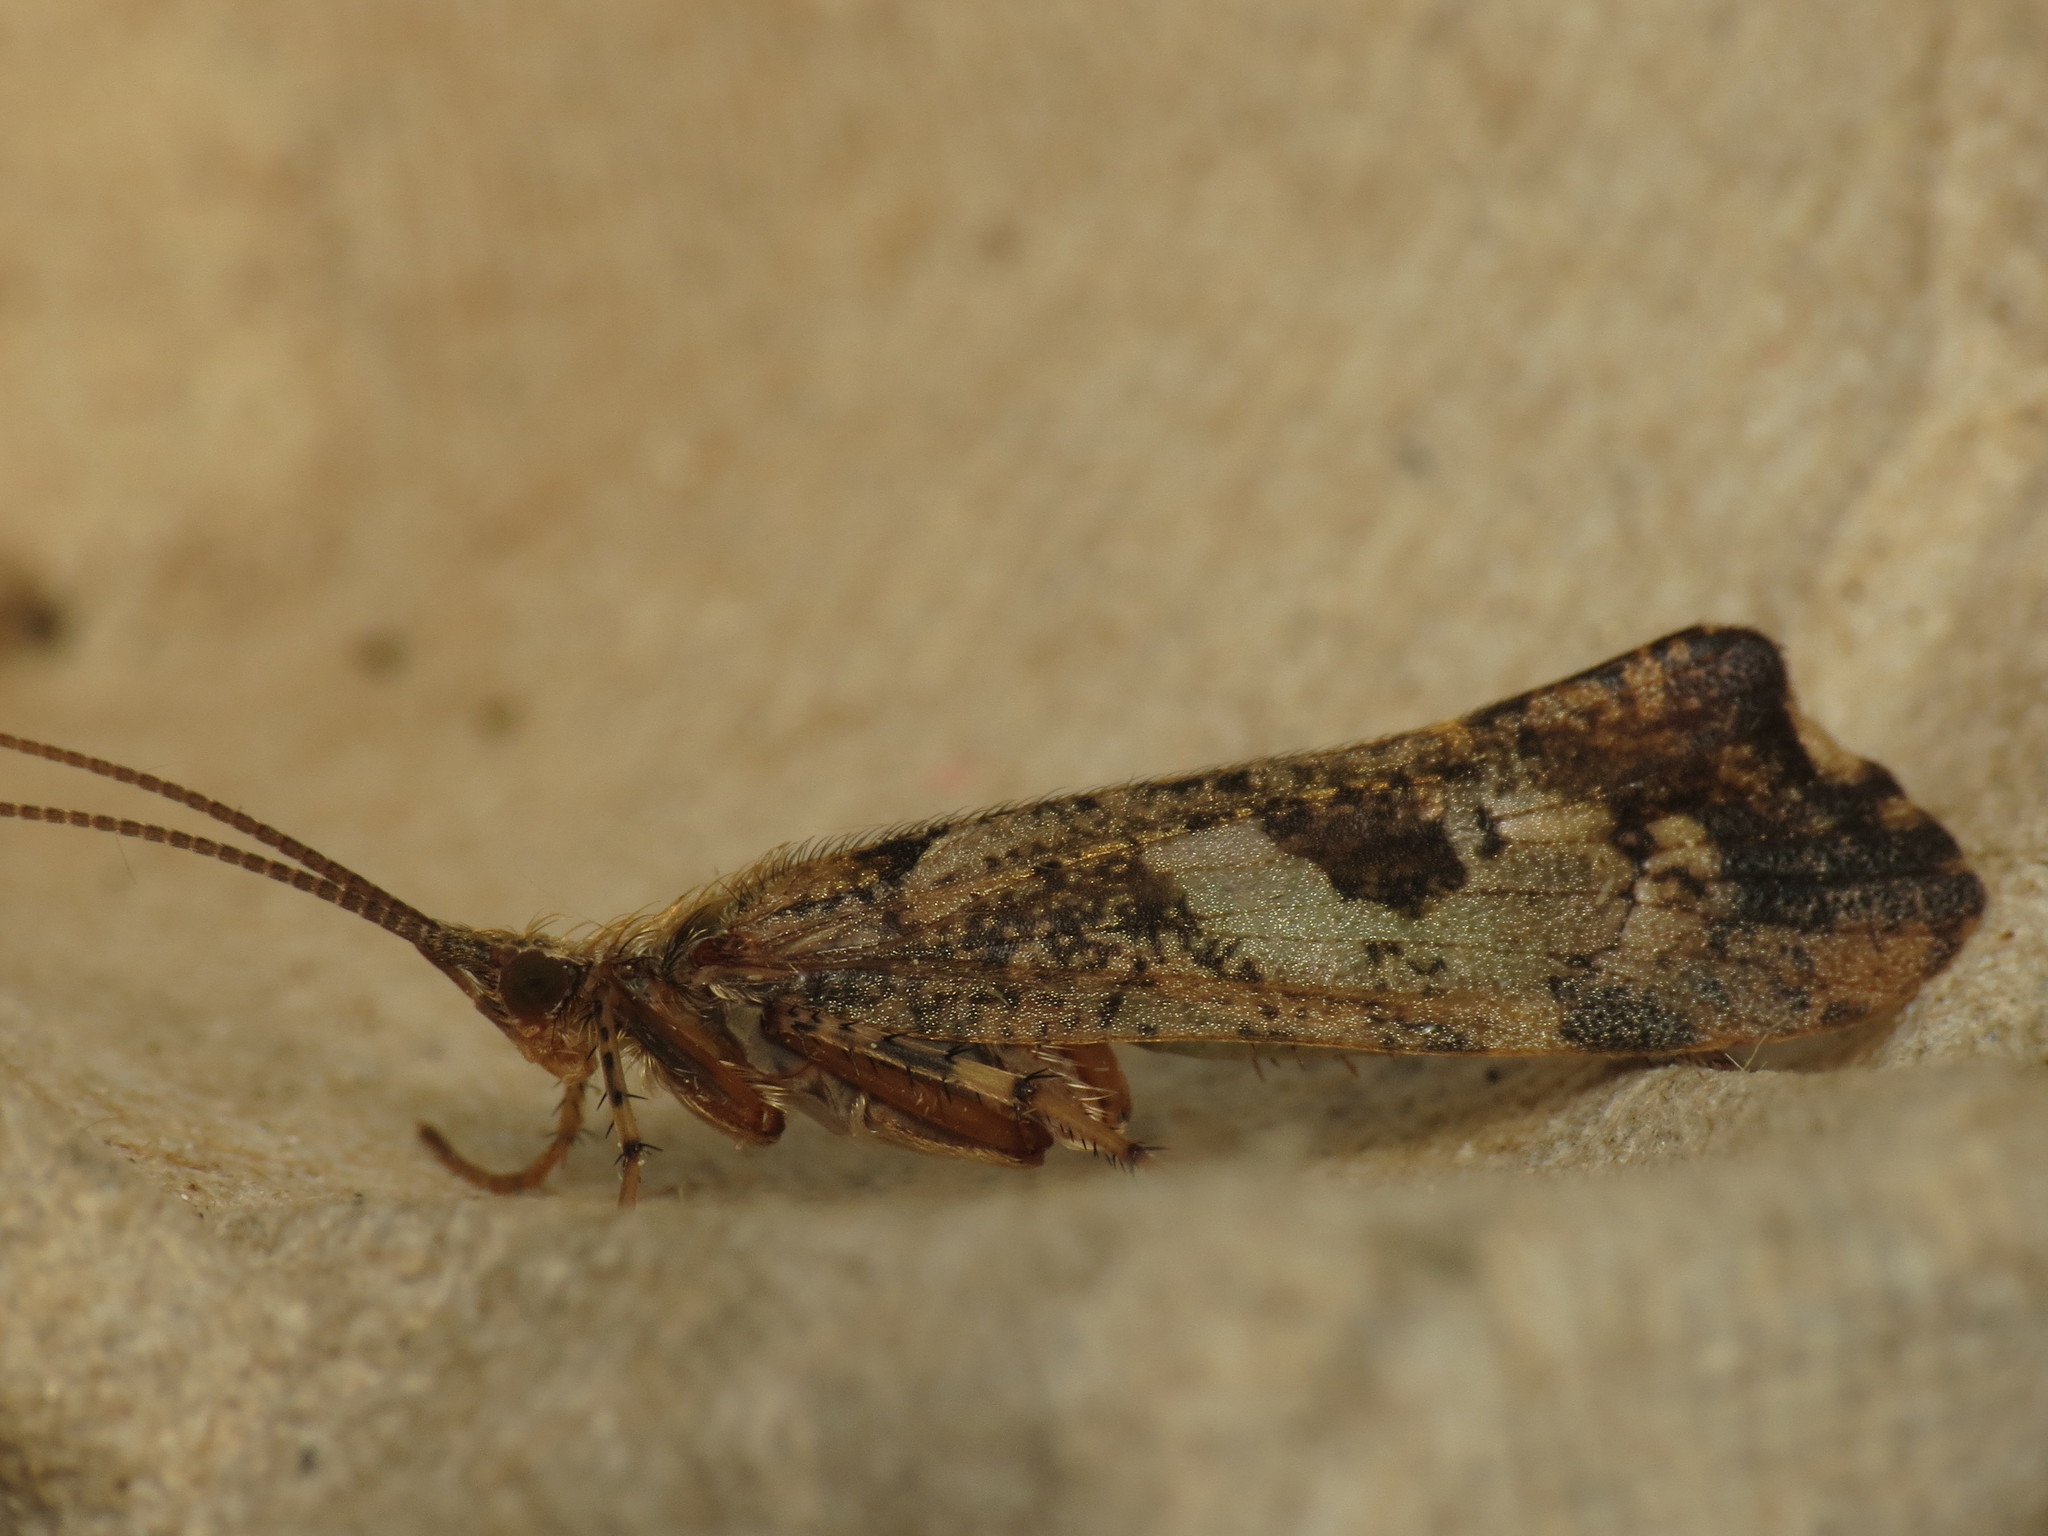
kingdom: Animalia
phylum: Arthropoda
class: Insecta
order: Trichoptera
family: Limnephilidae
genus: Glyphotaelius
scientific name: Glyphotaelius pellucidus
